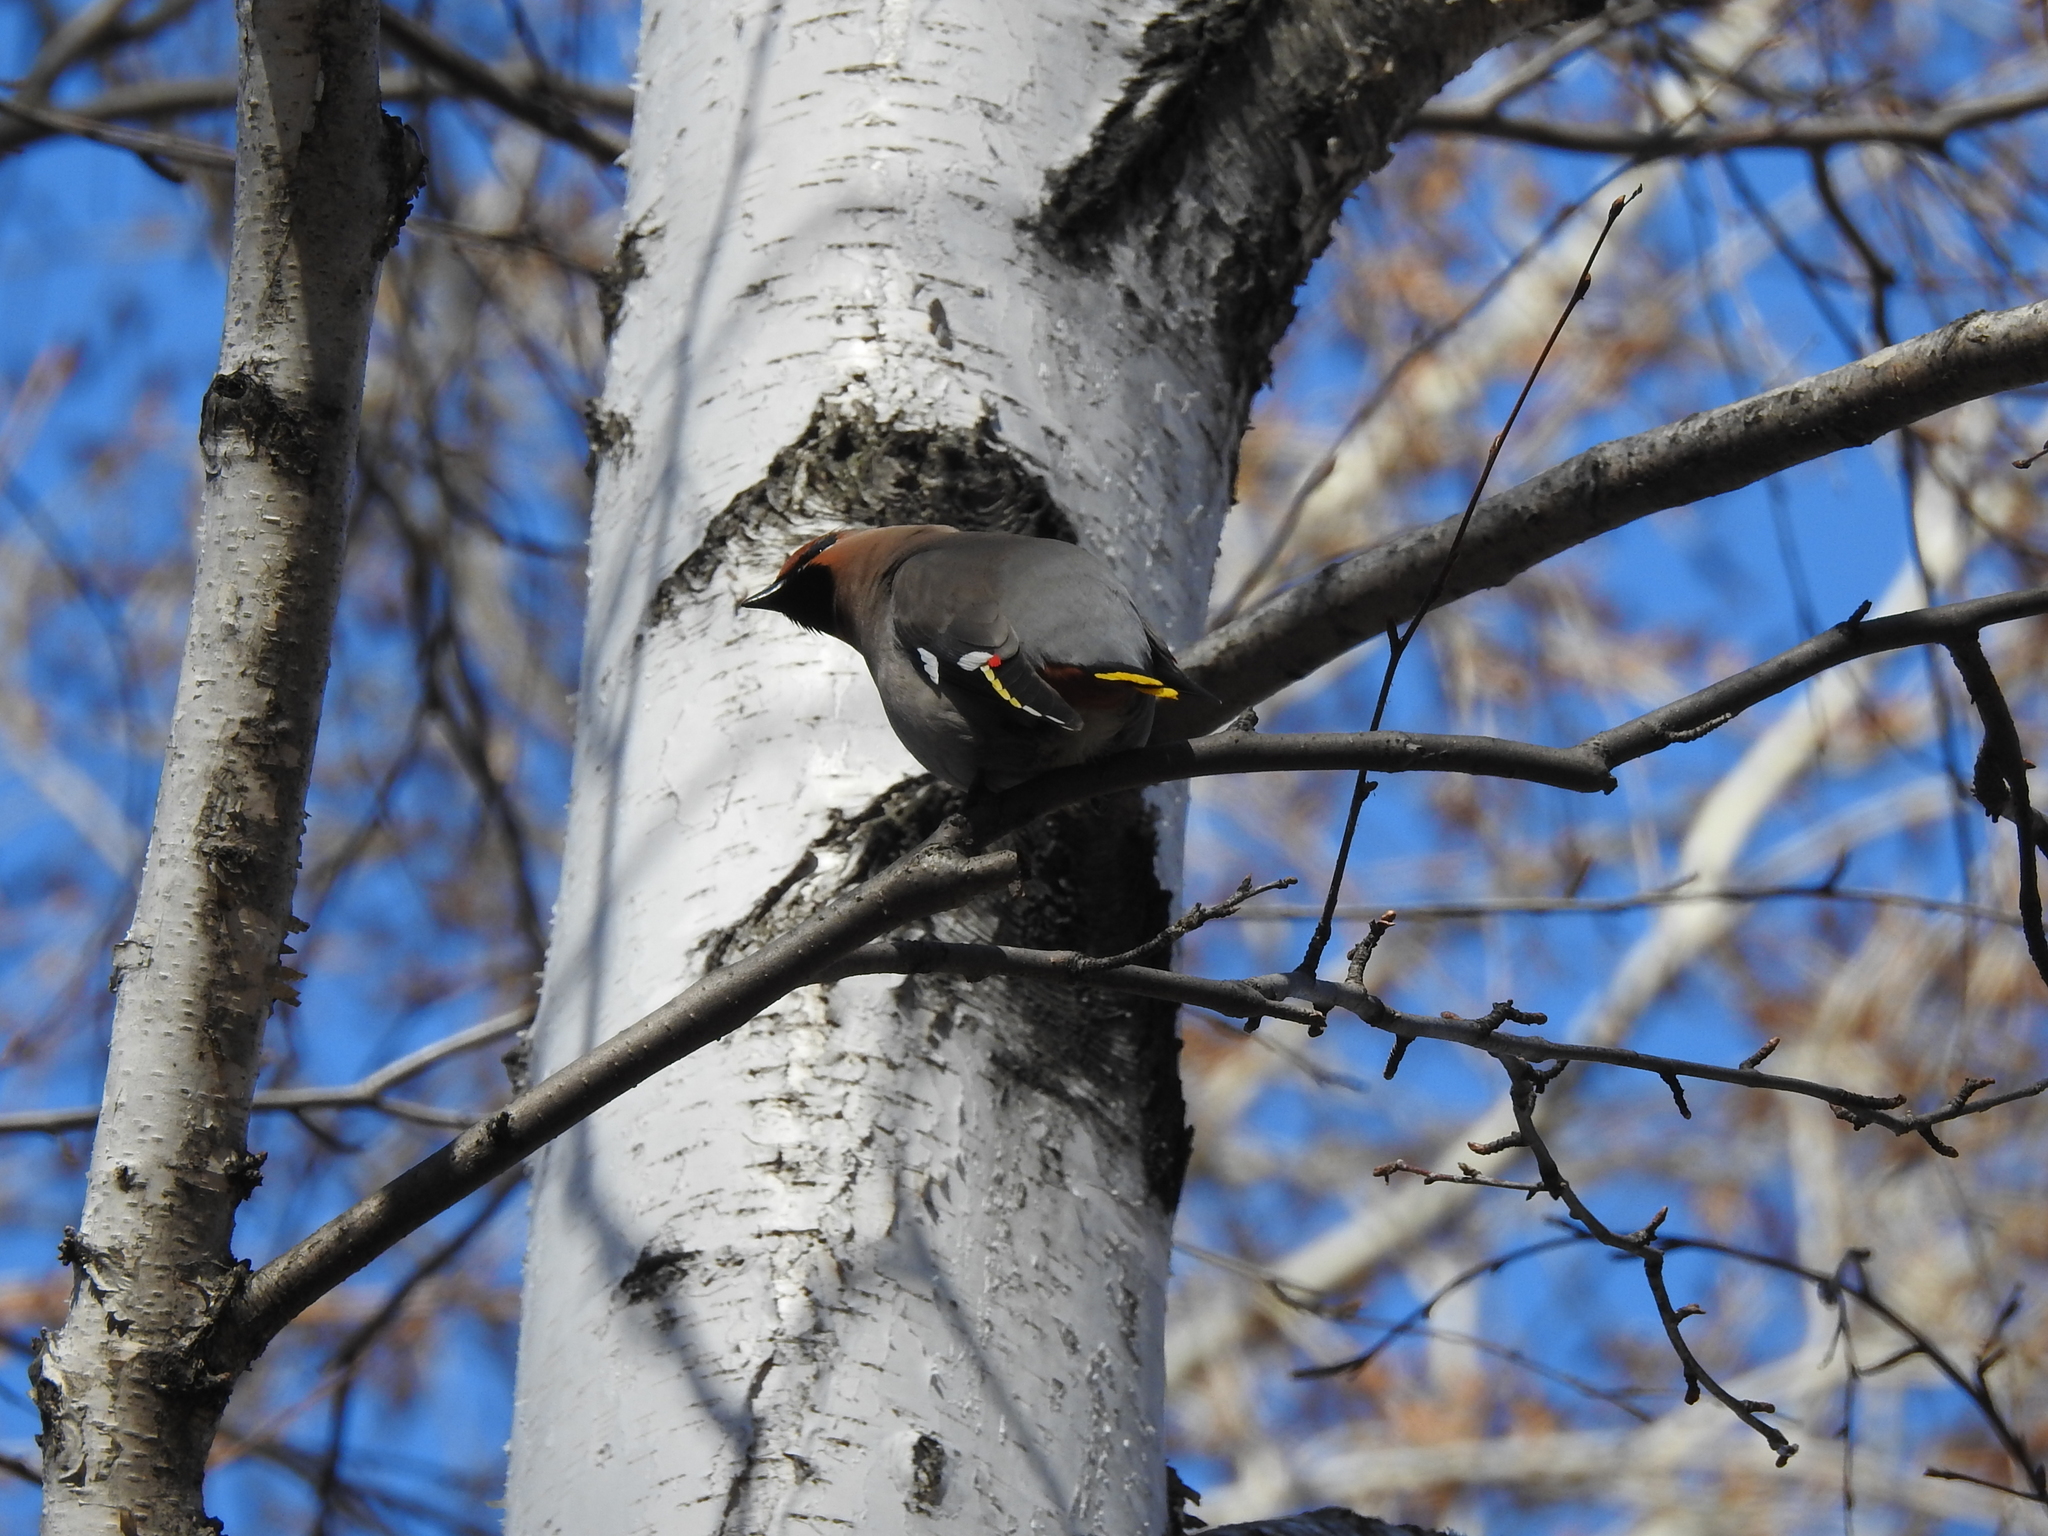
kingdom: Animalia
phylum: Chordata
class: Aves
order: Passeriformes
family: Bombycillidae
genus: Bombycilla
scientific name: Bombycilla garrulus
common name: Bohemian waxwing
